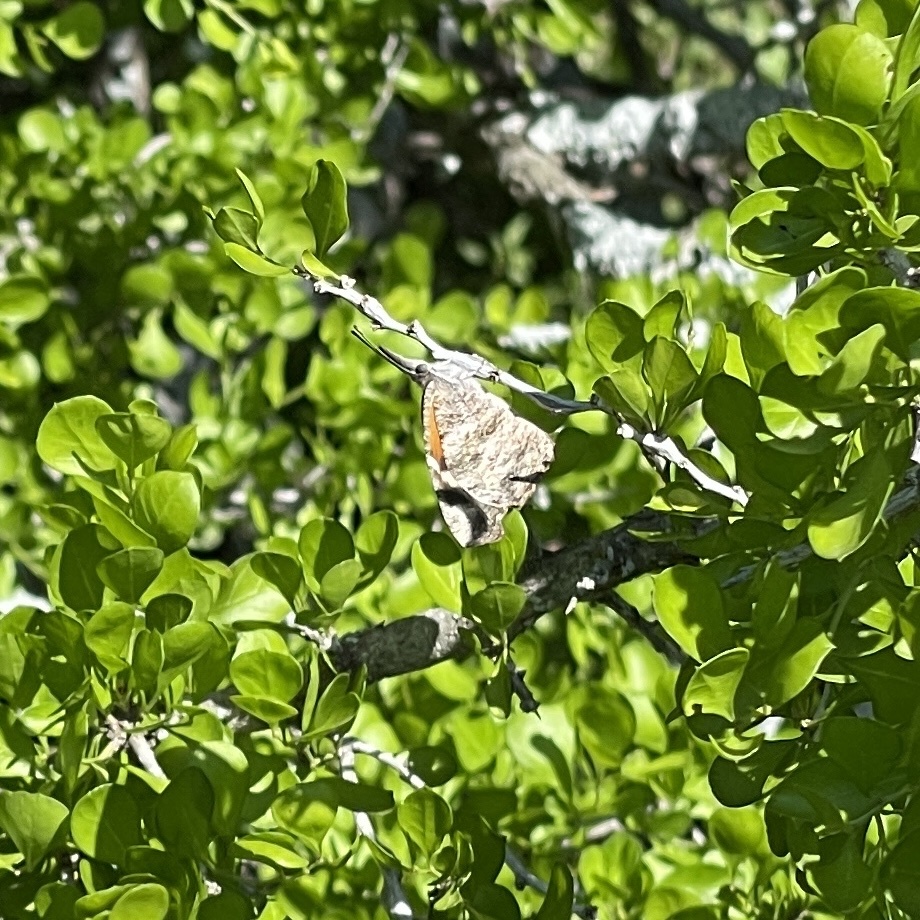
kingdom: Animalia
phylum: Arthropoda
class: Insecta
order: Lepidoptera
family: Nymphalidae
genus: Libytheana
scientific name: Libytheana carinenta
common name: American snout
